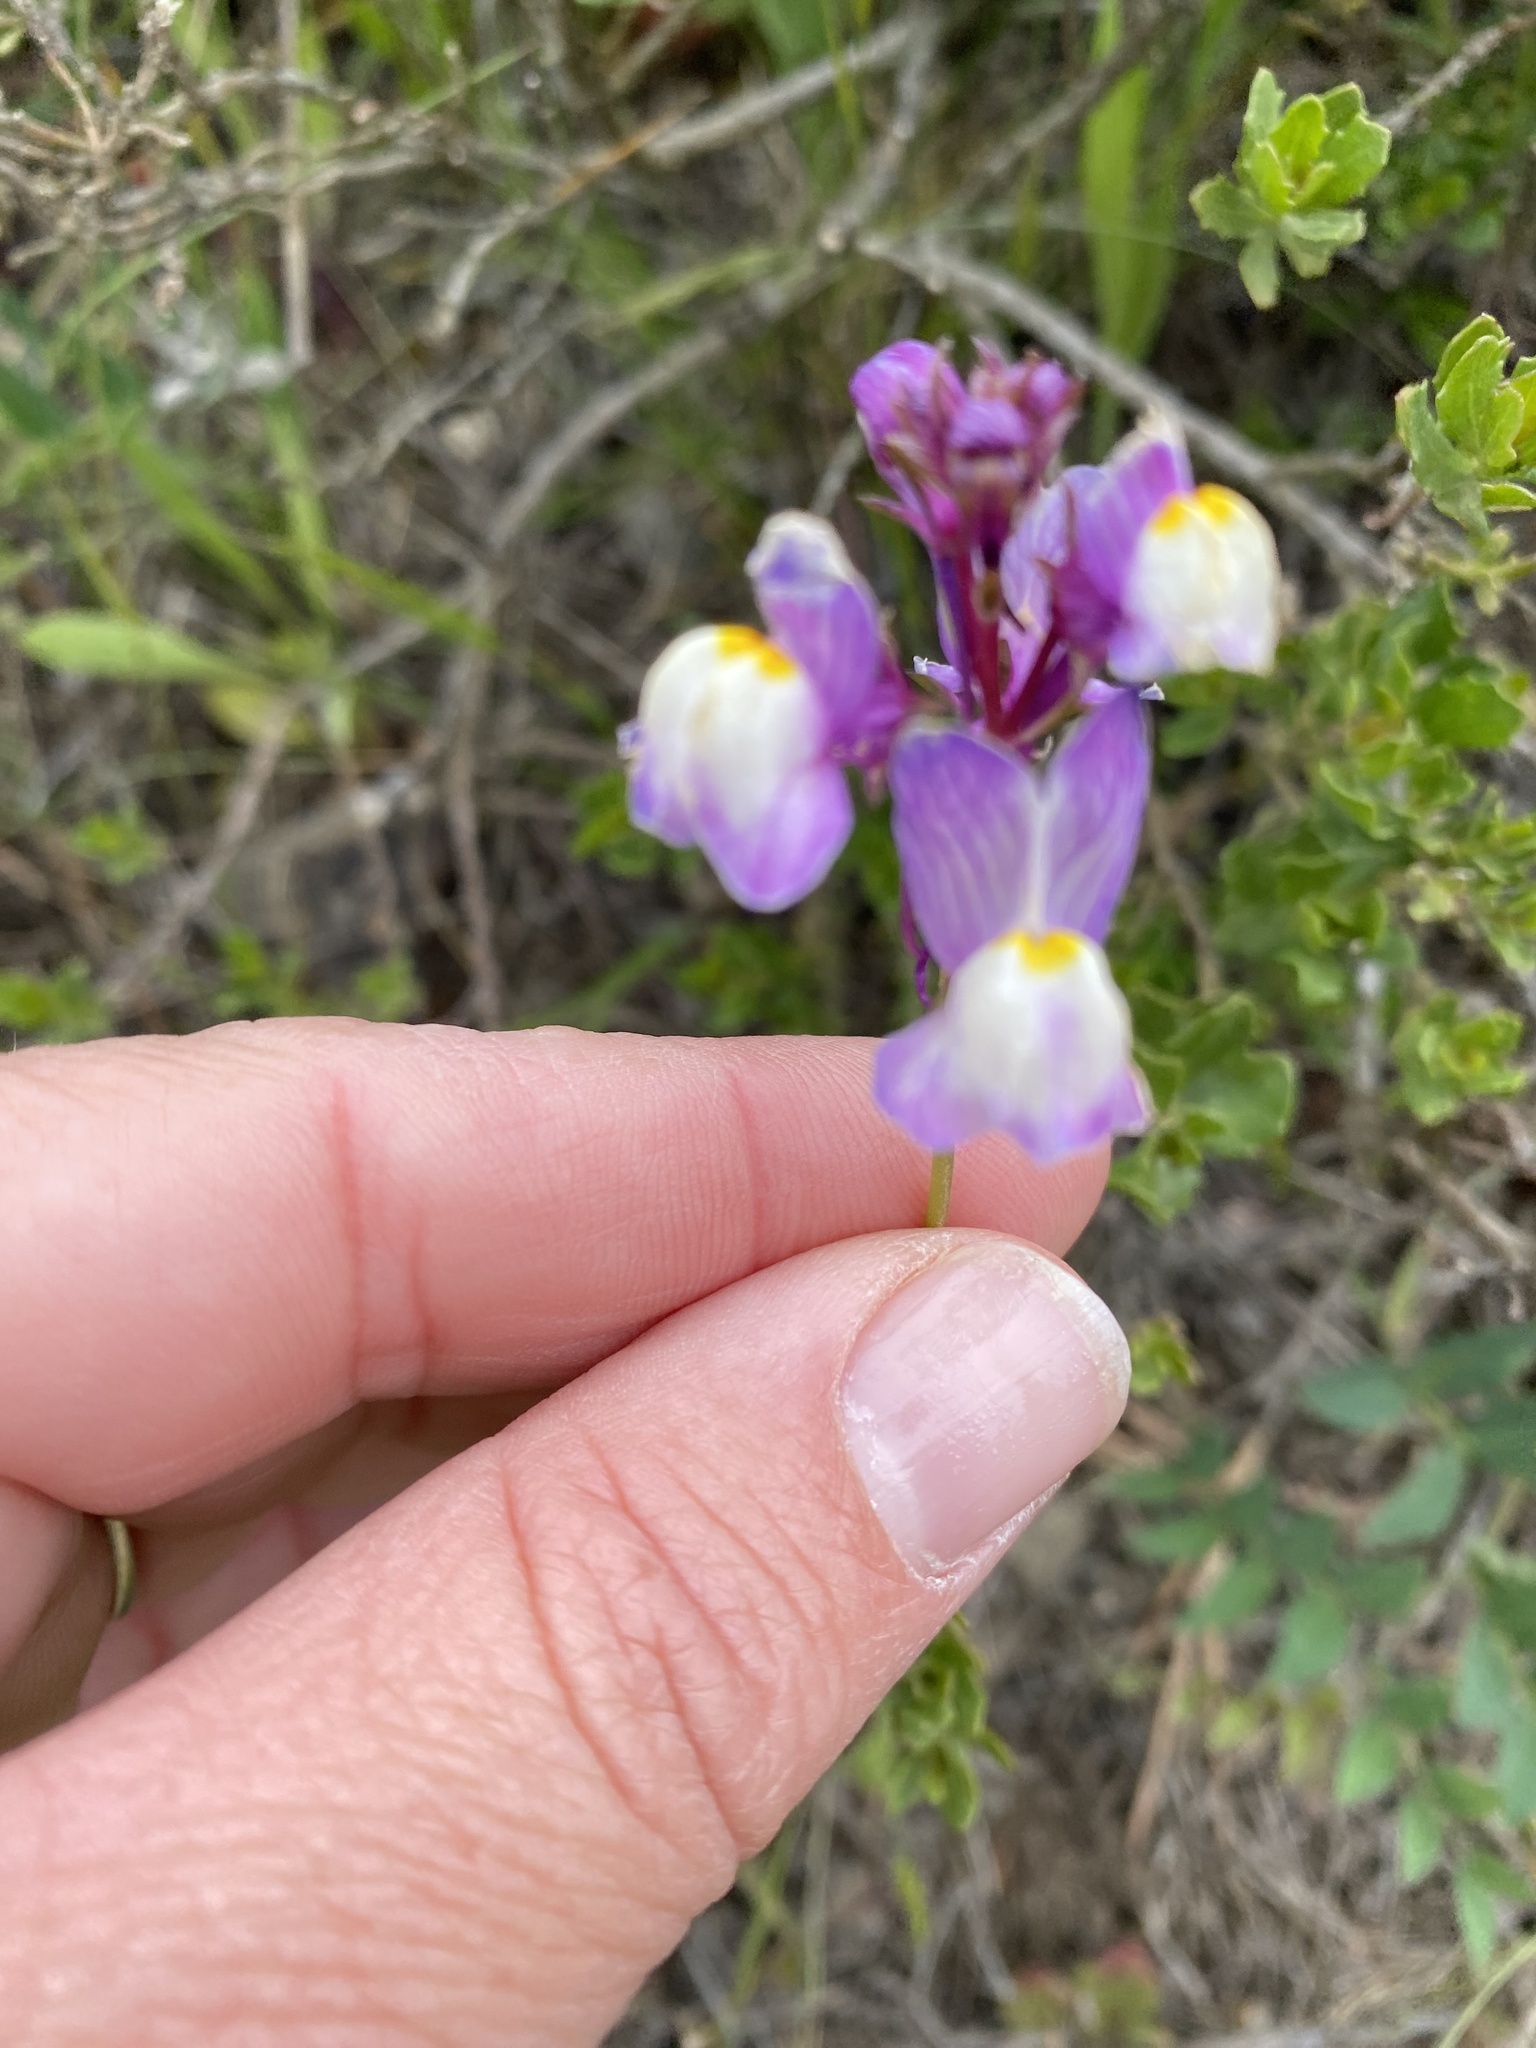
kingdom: Plantae
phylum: Tracheophyta
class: Magnoliopsida
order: Lamiales
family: Plantaginaceae
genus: Linaria
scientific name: Linaria maroccana
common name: Moroccan toadflax
